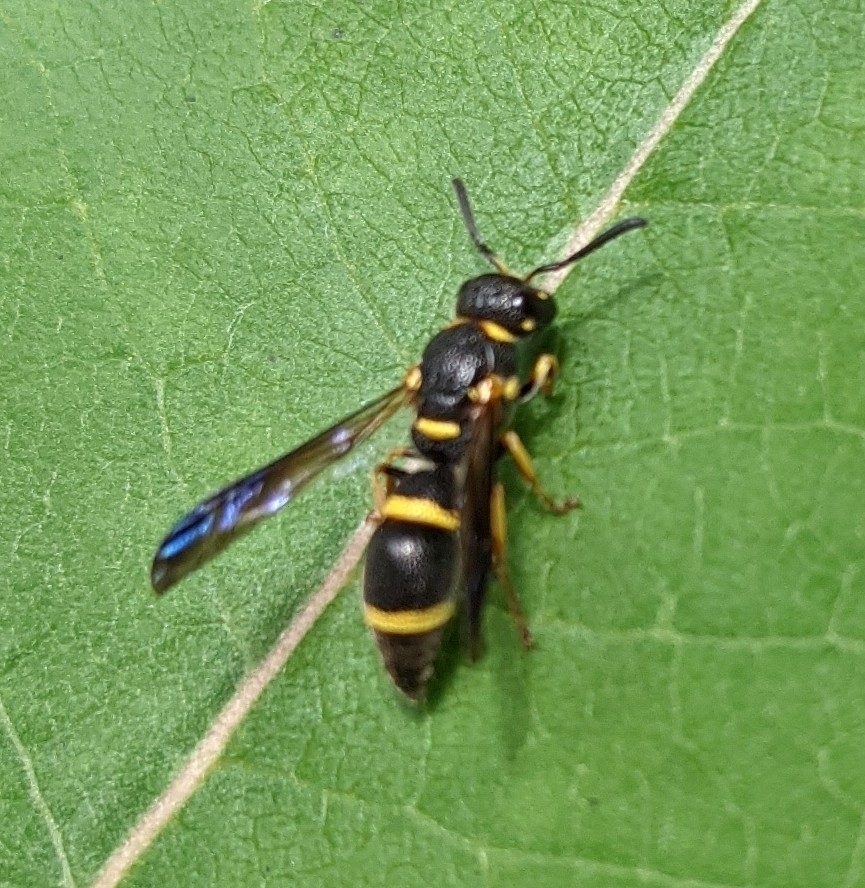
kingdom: Animalia
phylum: Arthropoda
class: Insecta
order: Hymenoptera
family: Eumenidae
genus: Parancistrocerus
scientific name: Parancistrocerus perennis
